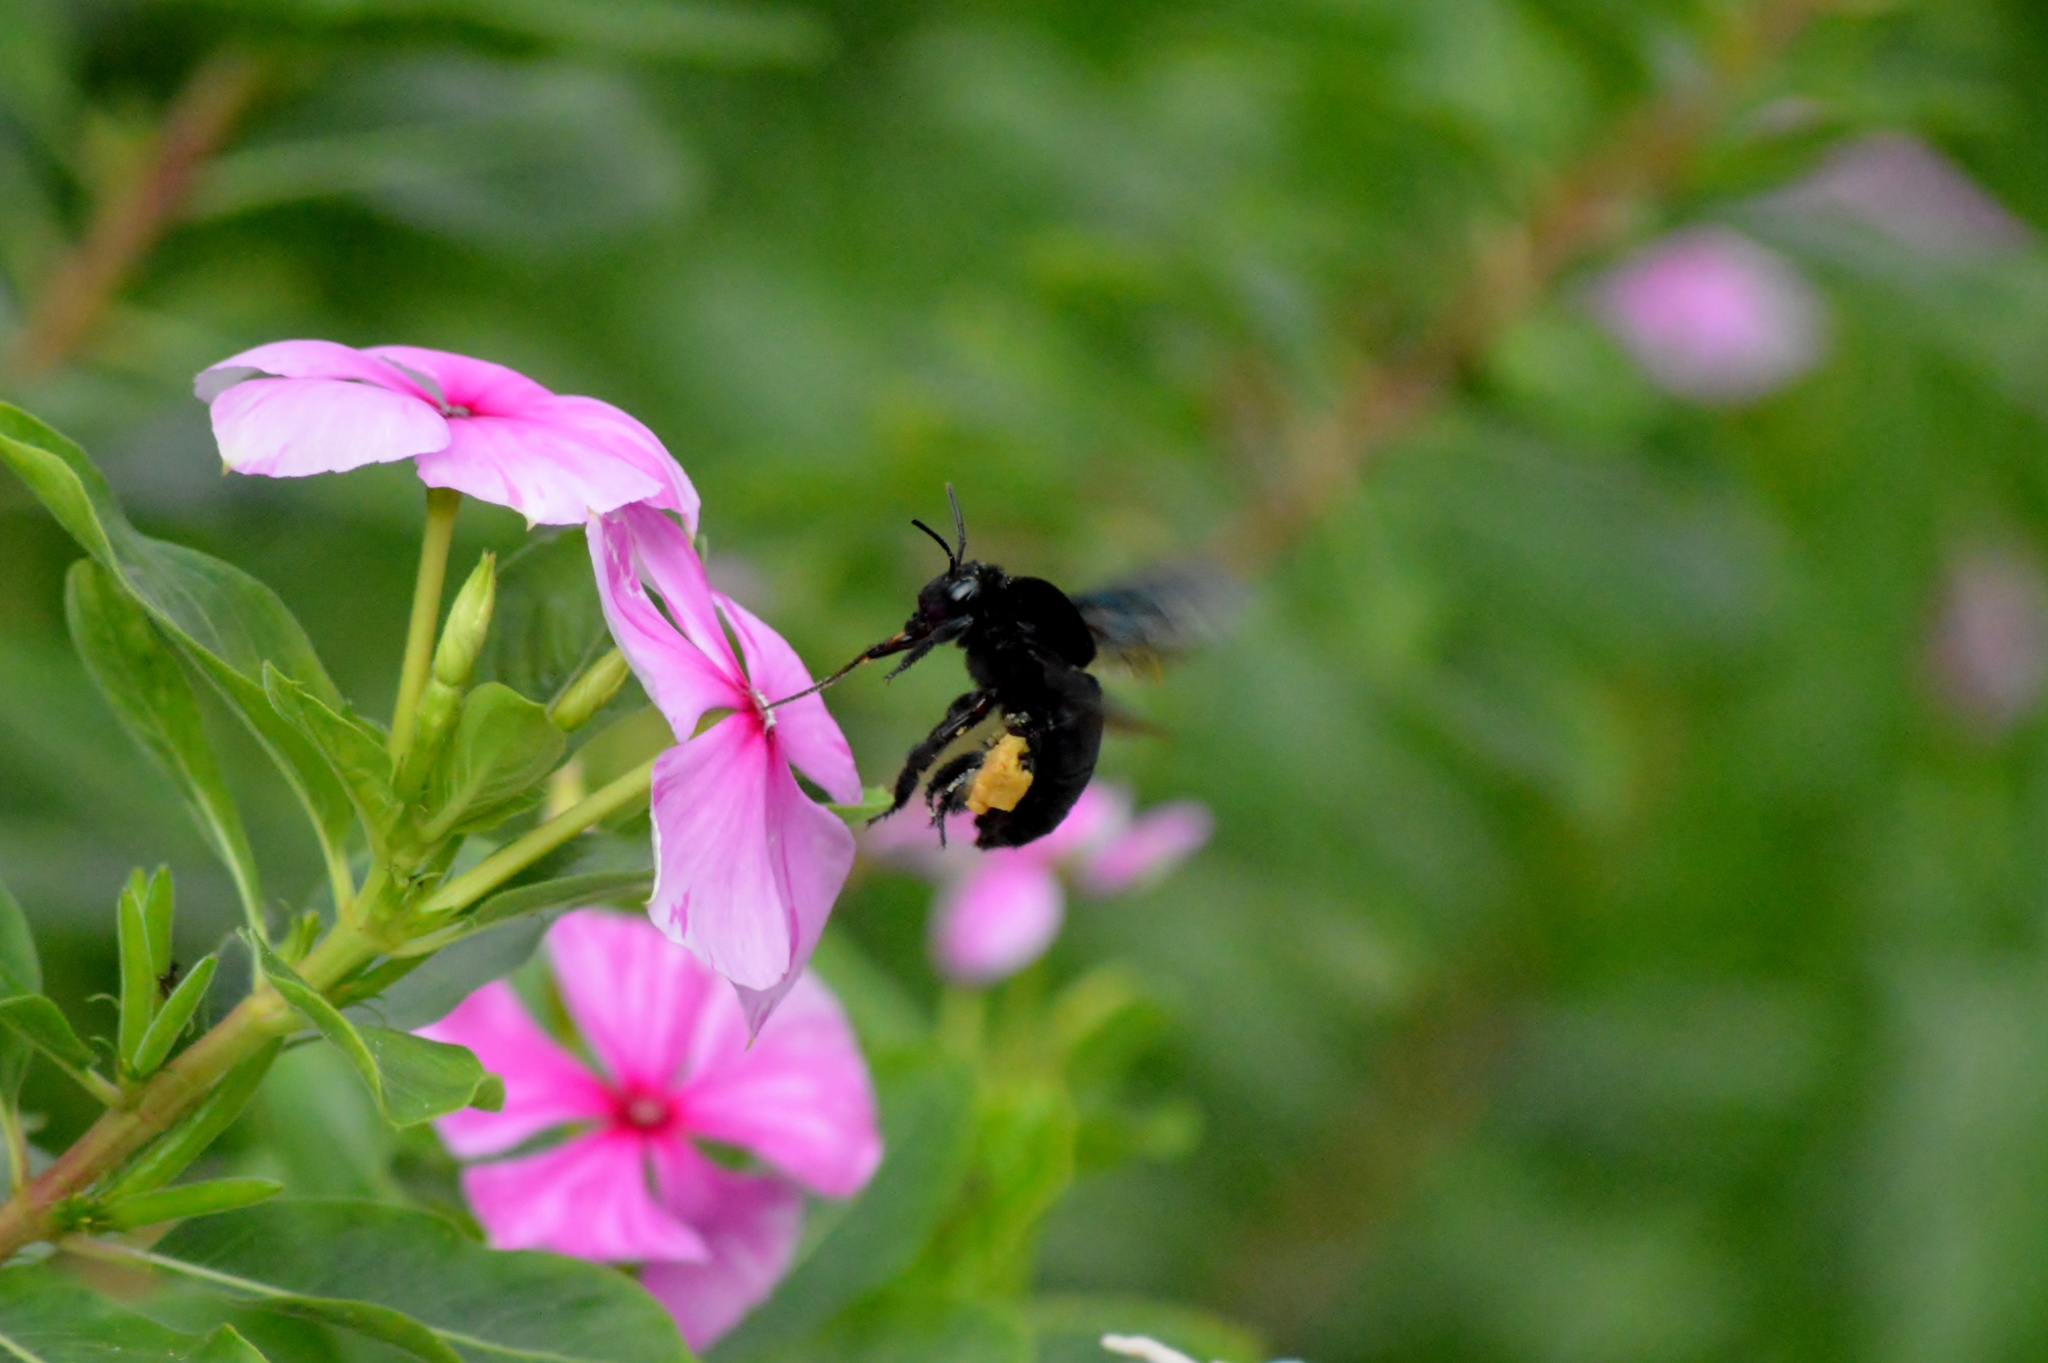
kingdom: Animalia
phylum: Arthropoda
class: Insecta
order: Hymenoptera
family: Apidae
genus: Eulaema
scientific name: Eulaema nigrita
